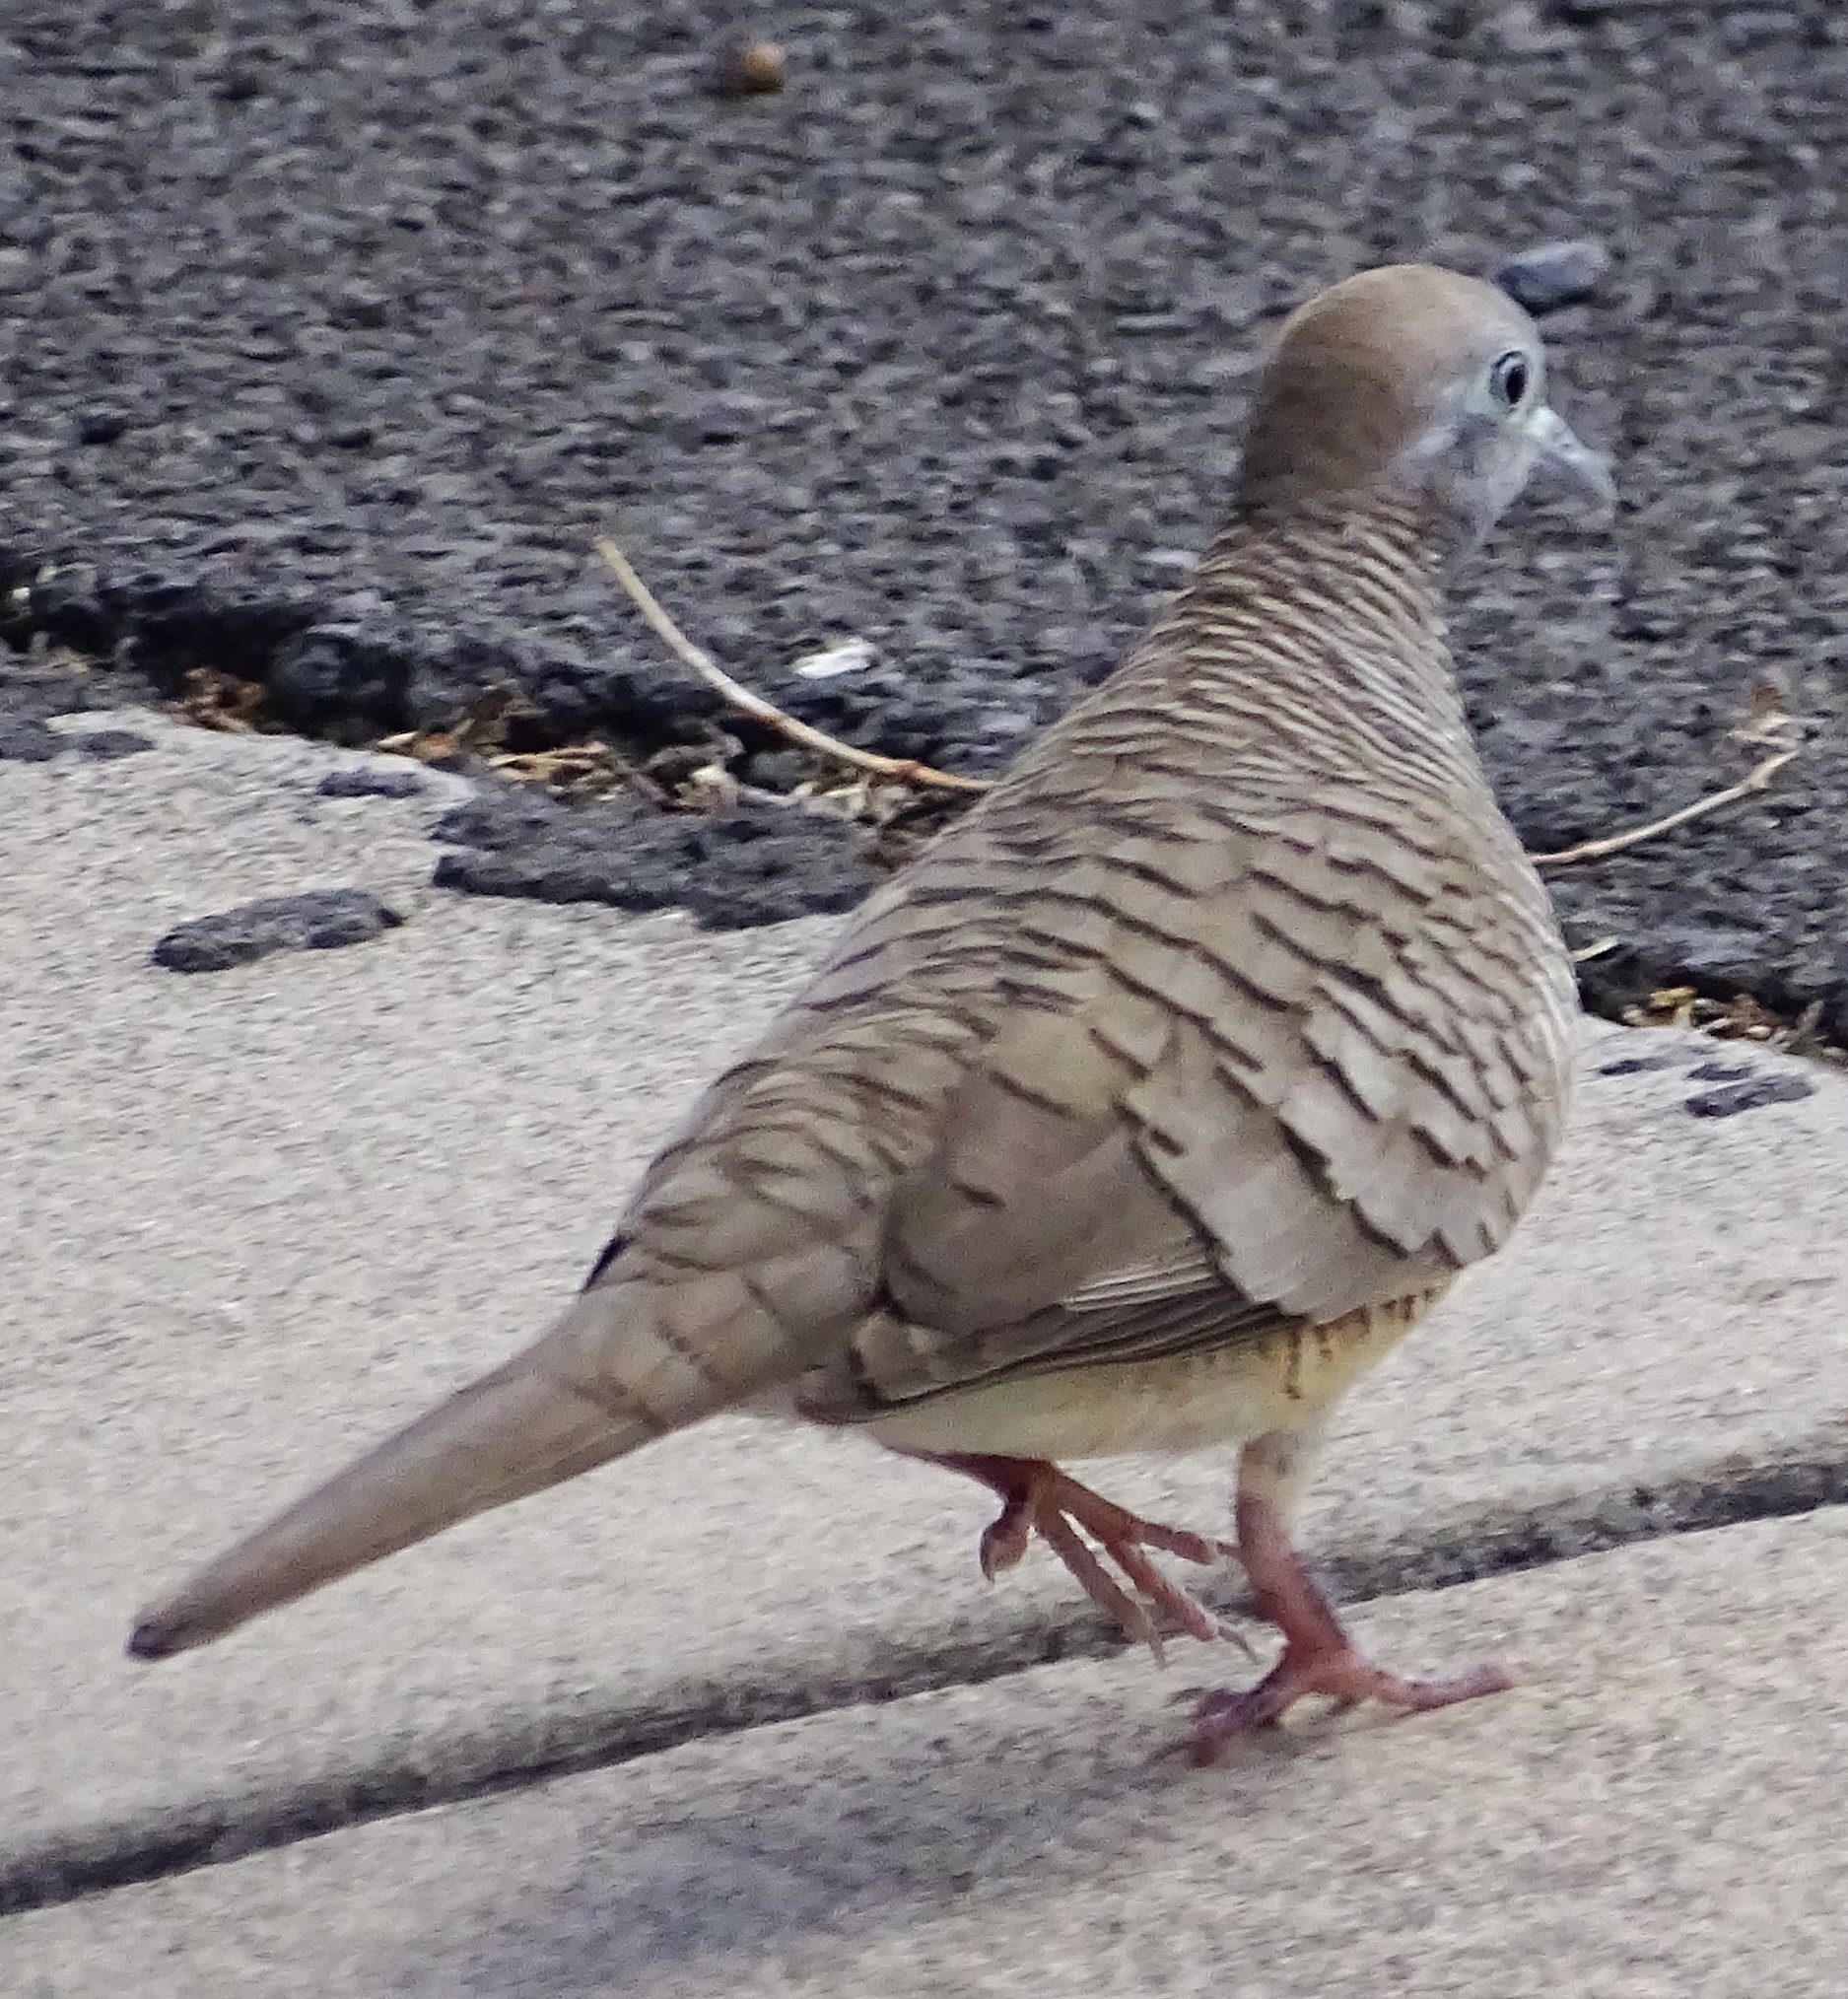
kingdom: Animalia
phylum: Chordata
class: Aves
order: Columbiformes
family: Columbidae
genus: Geopelia
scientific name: Geopelia striata
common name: Zebra dove
